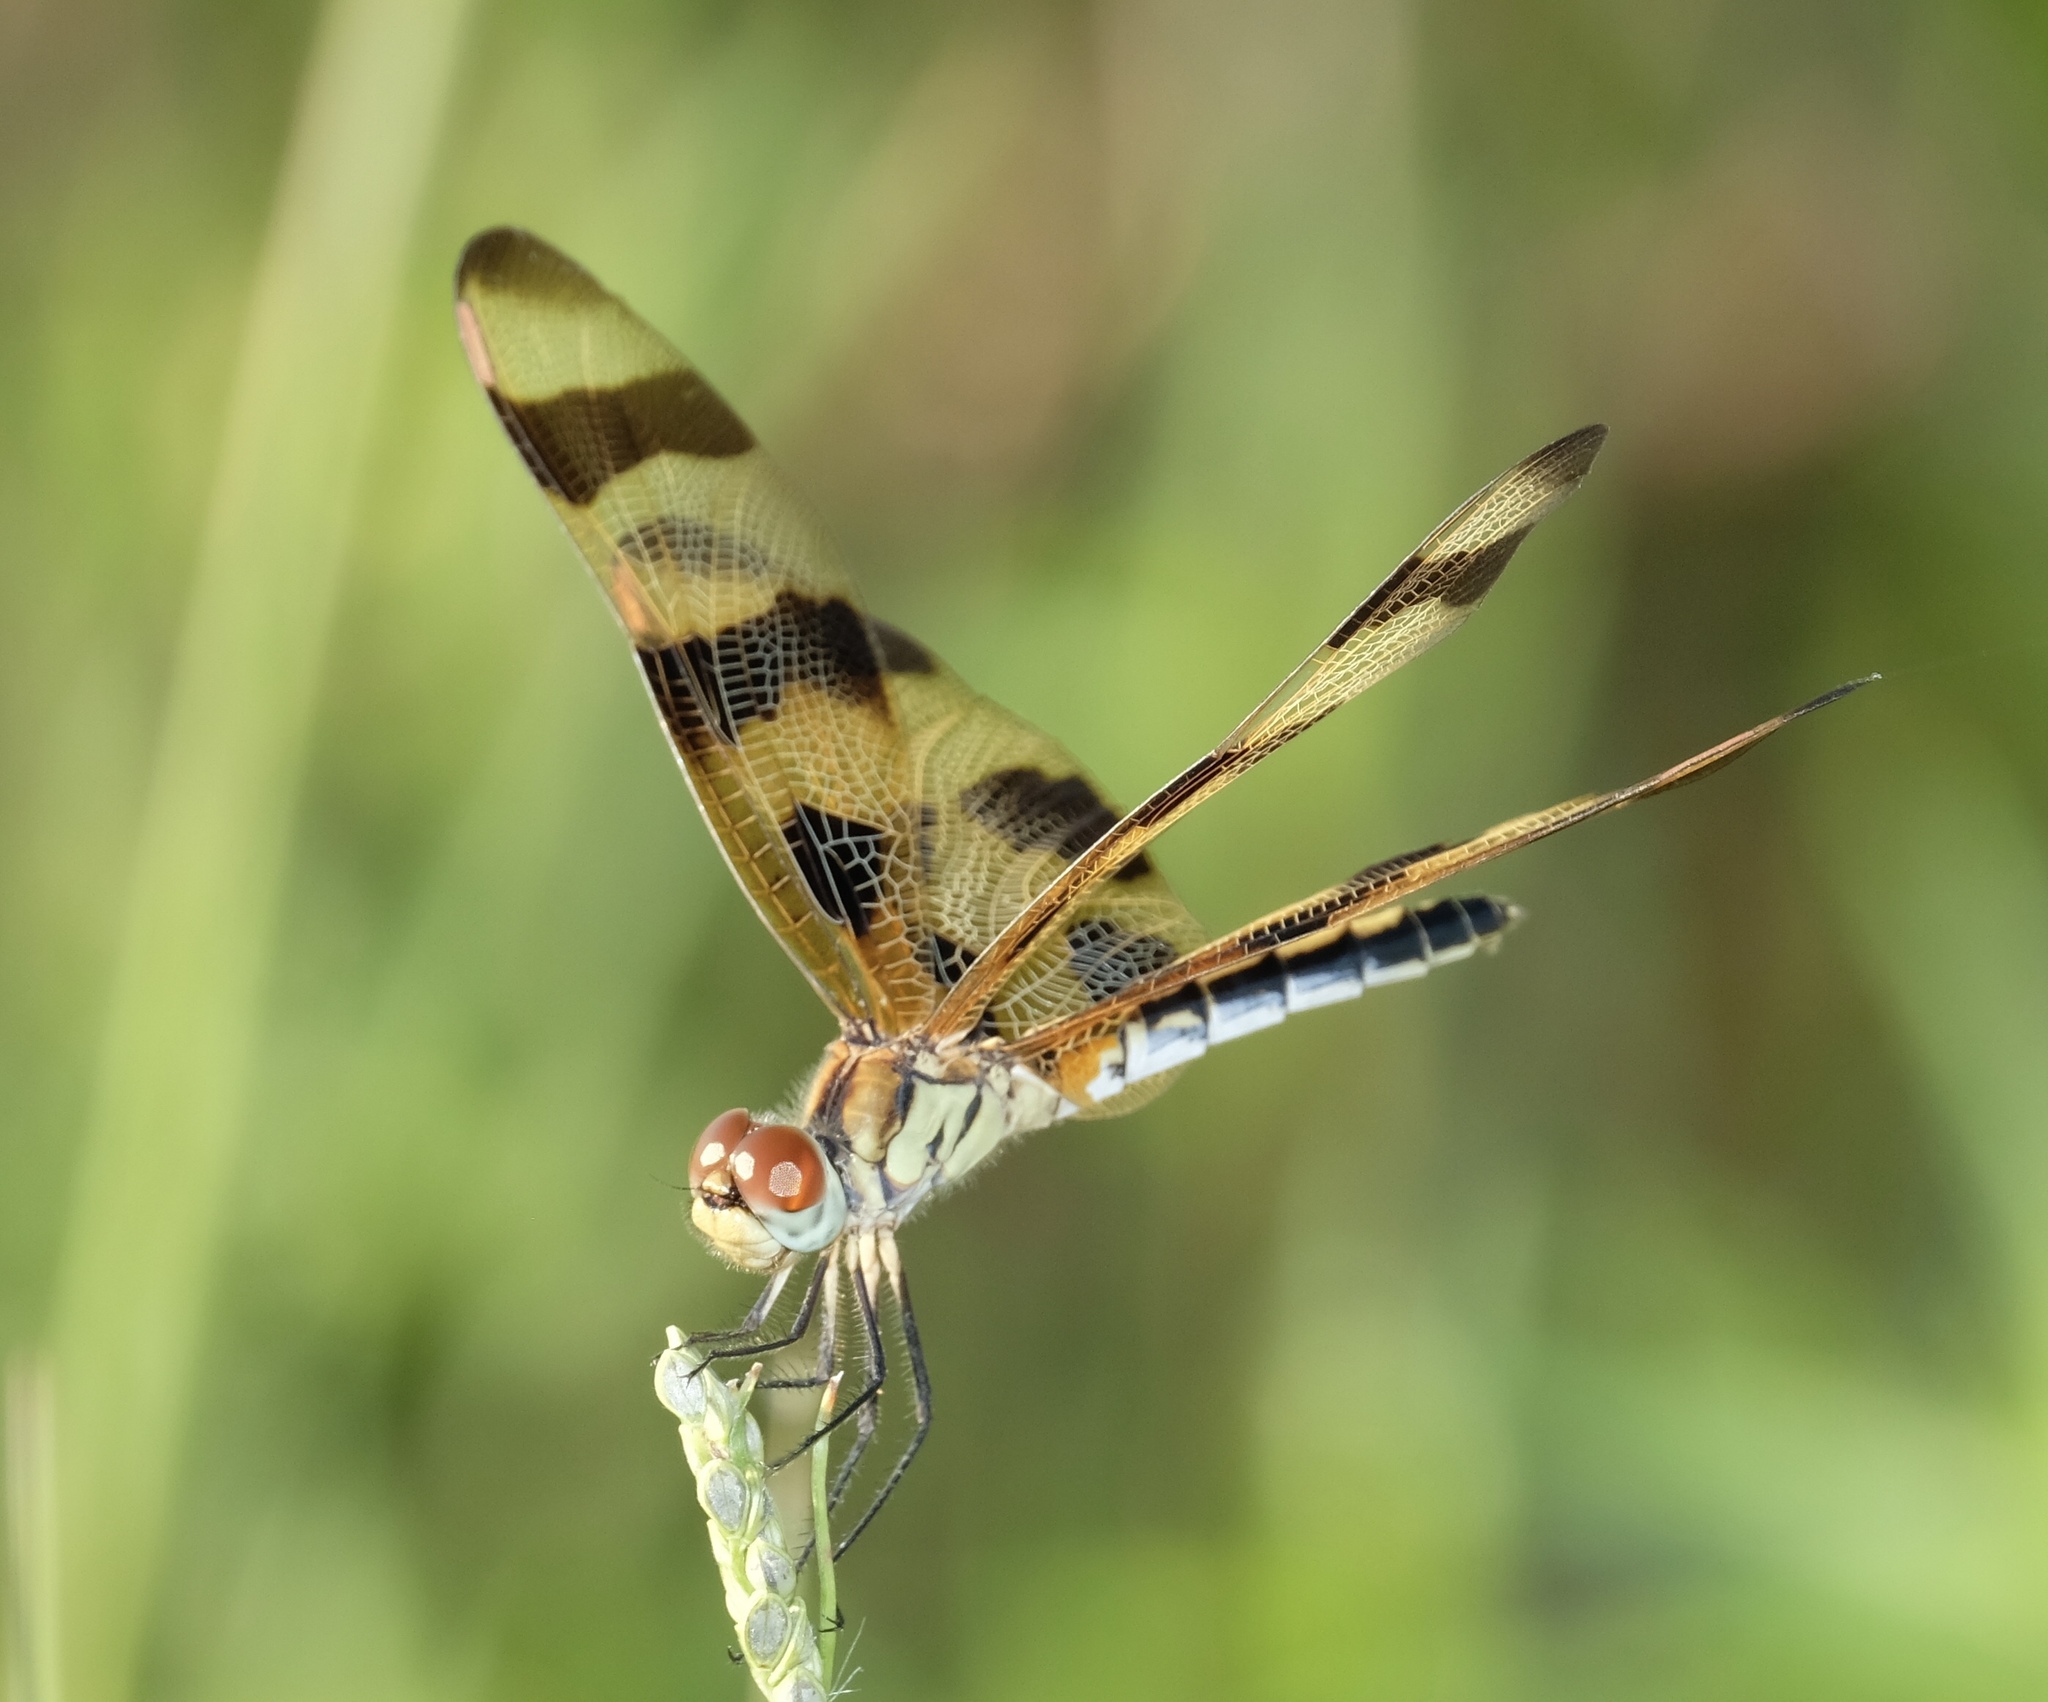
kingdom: Animalia
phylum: Arthropoda
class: Insecta
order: Odonata
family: Libellulidae
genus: Celithemis
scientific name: Celithemis eponina
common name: Halloween pennant
